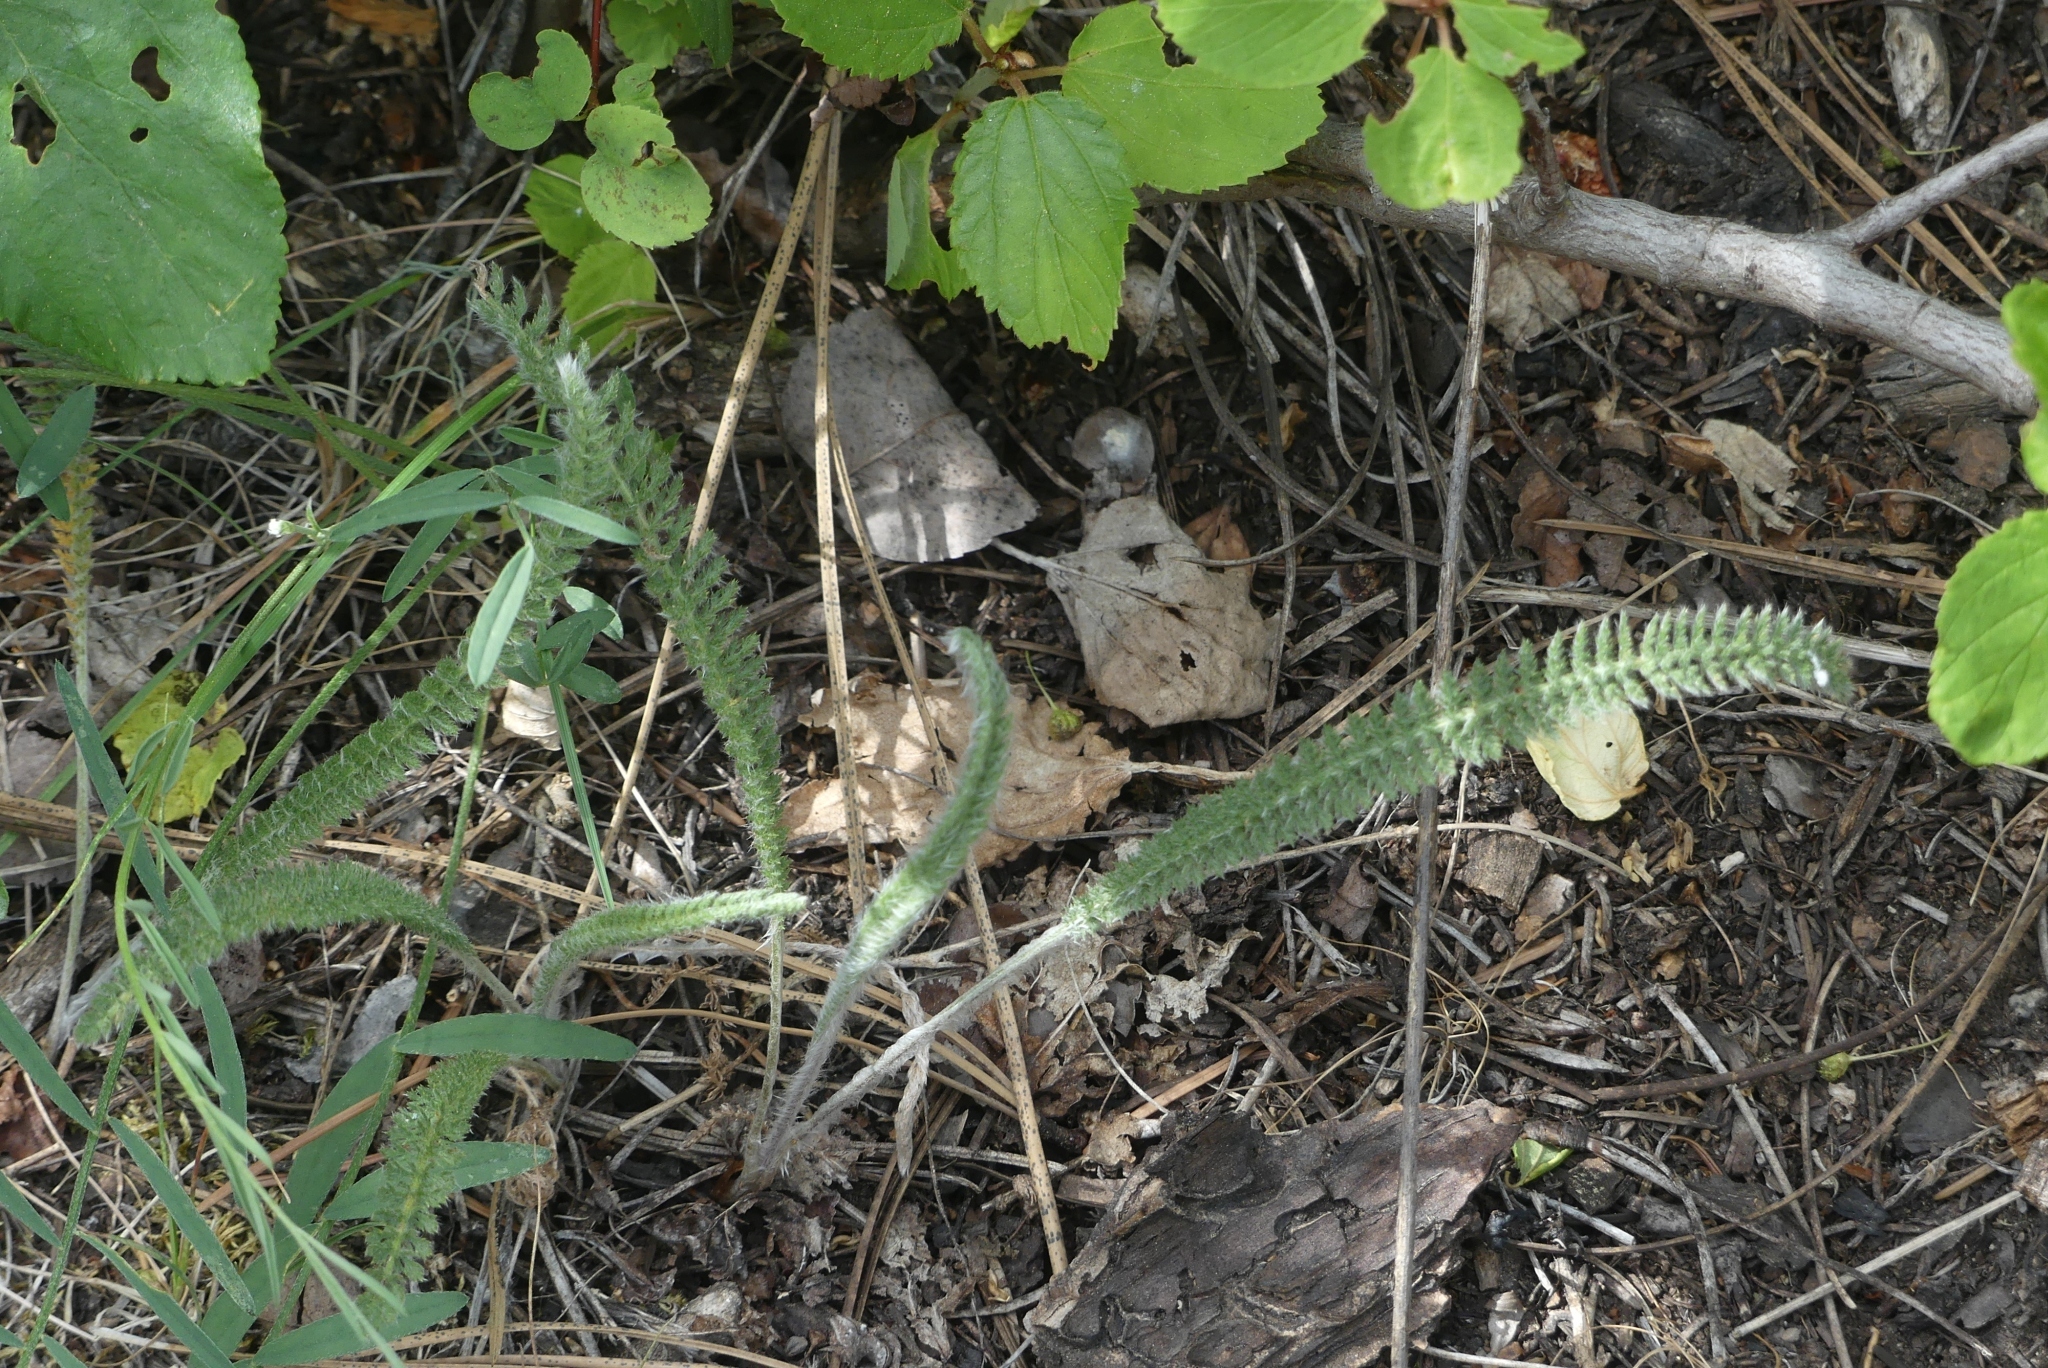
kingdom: Plantae
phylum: Tracheophyta
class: Magnoliopsida
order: Asterales
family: Asteraceae
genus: Achillea
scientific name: Achillea millefolium
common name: Yarrow
